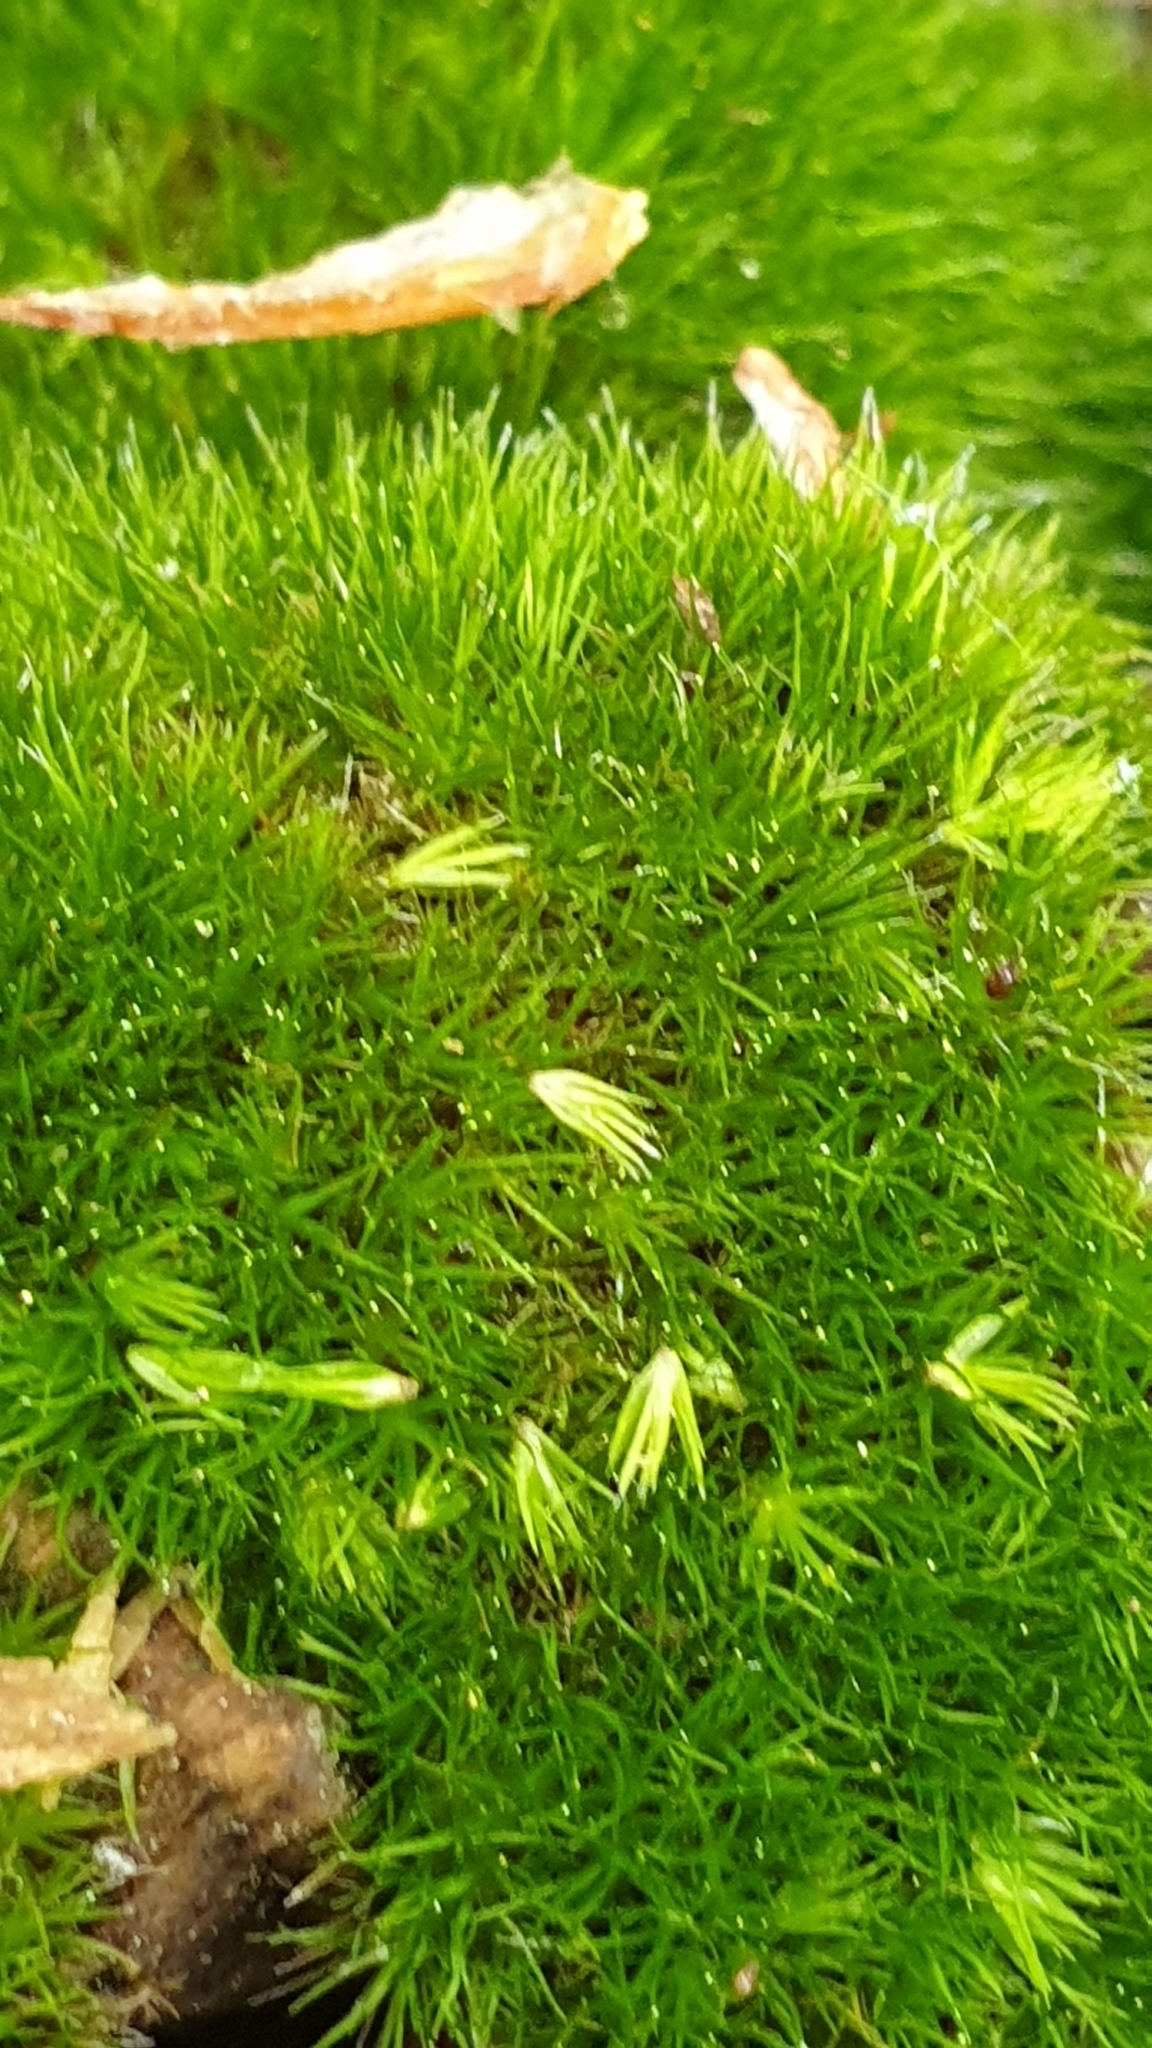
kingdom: Plantae
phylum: Bryophyta
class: Bryopsida
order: Dicranales
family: Leucobryaceae
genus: Campylopus
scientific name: Campylopus pyriformis
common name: Dwarf swan-neck moss
